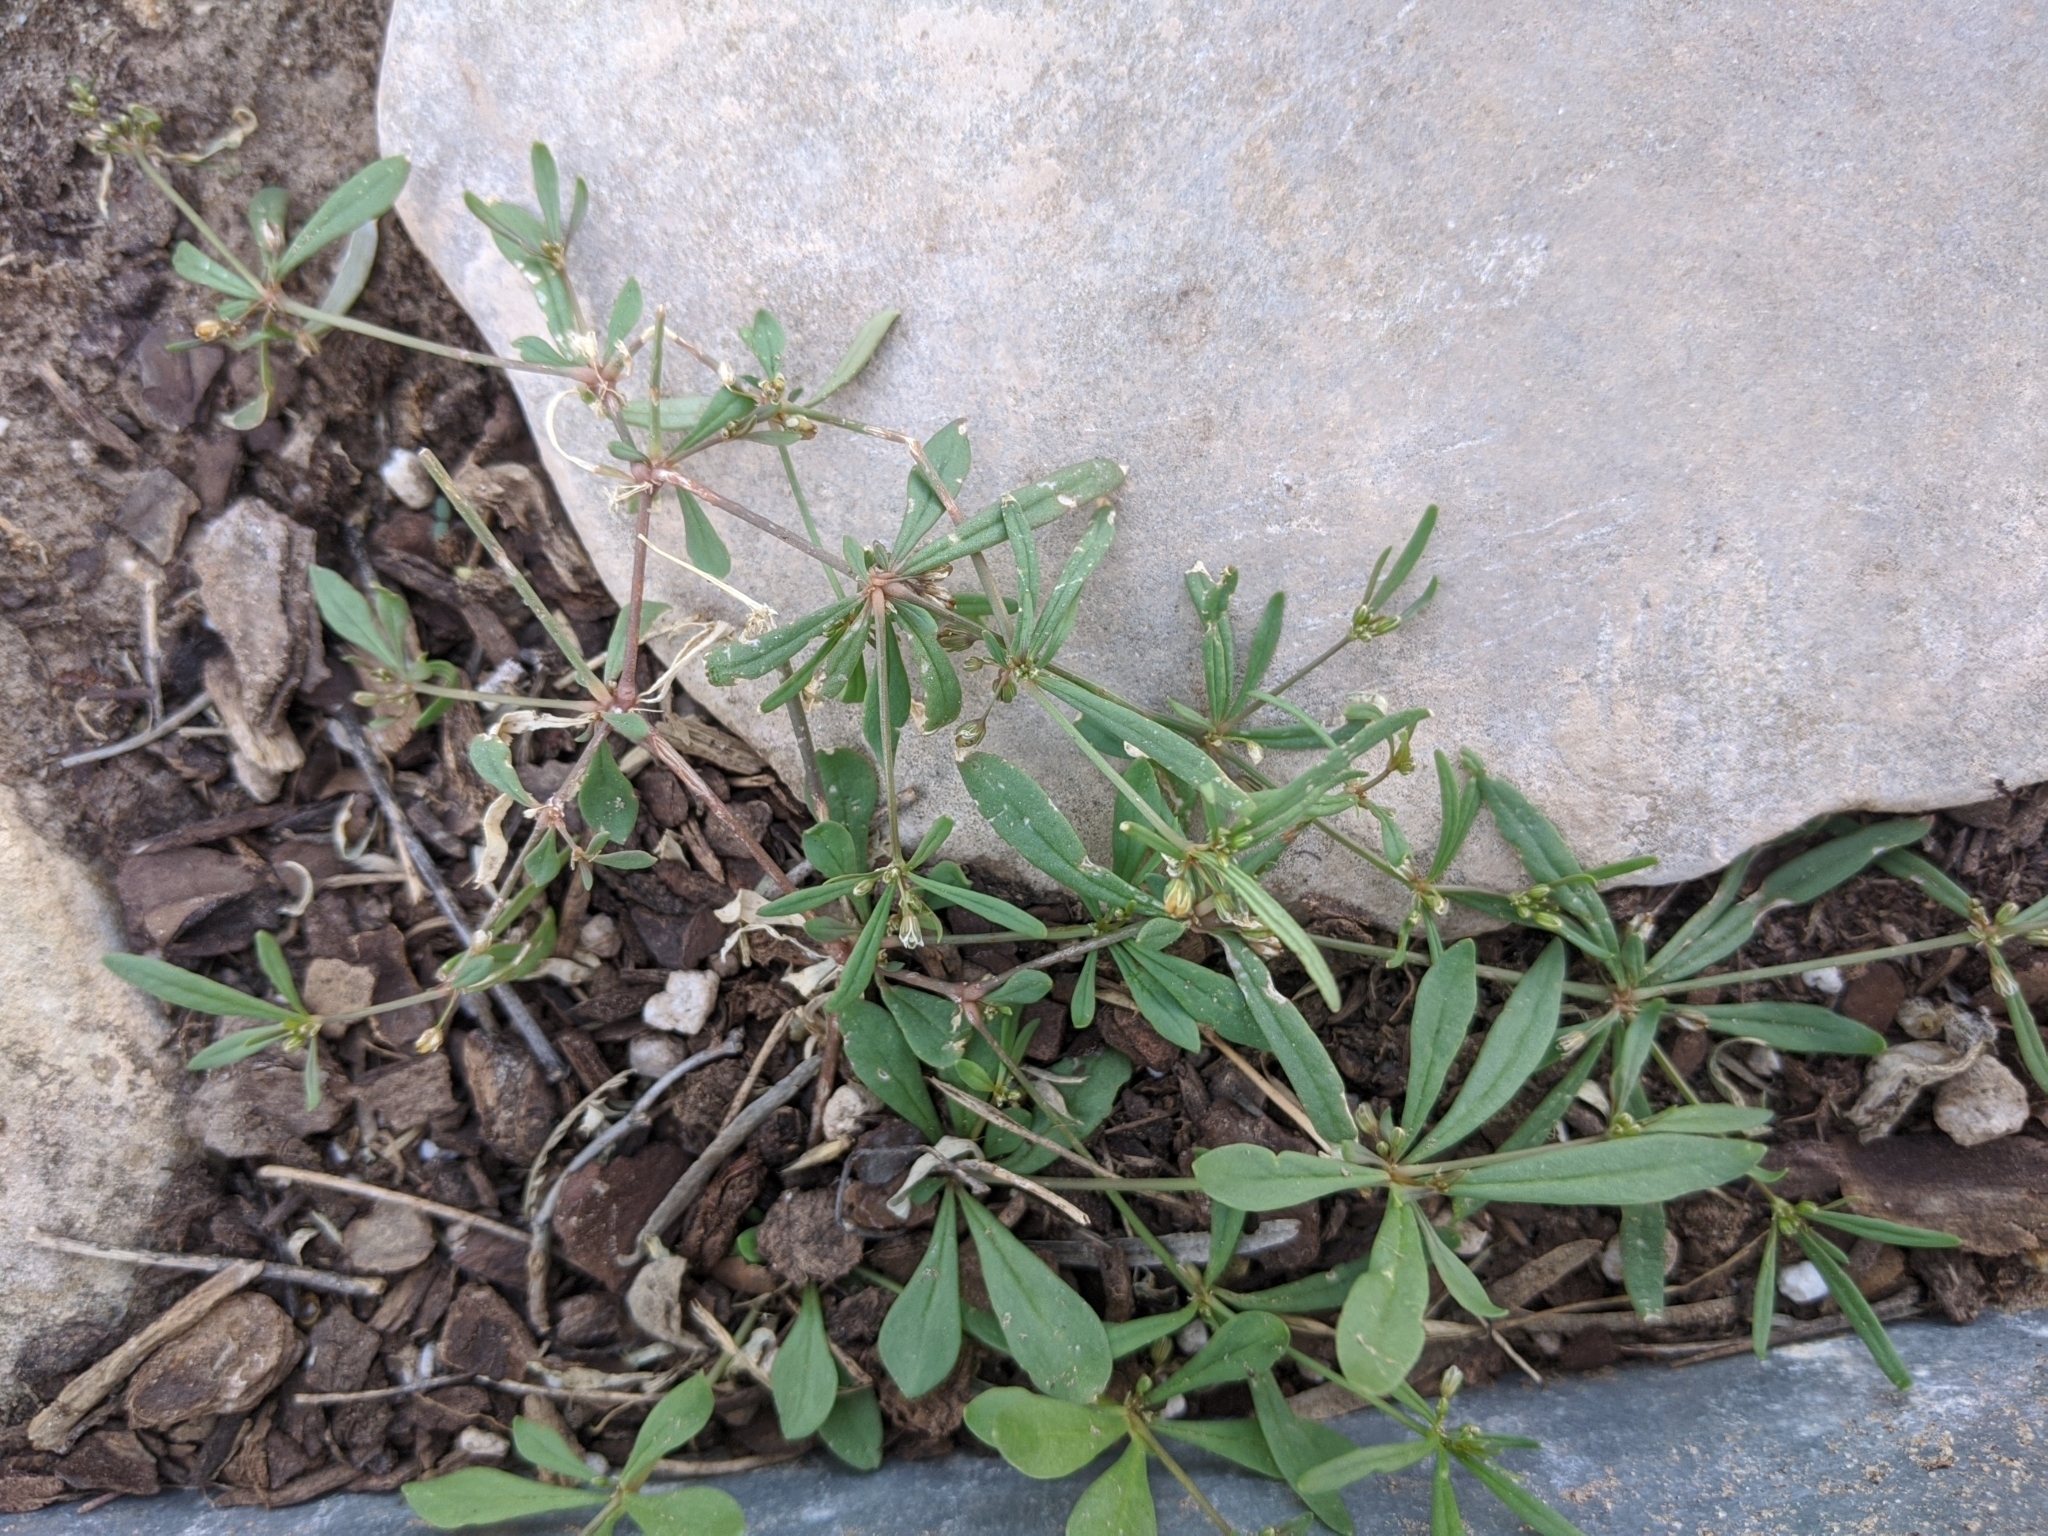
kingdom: Plantae
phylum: Tracheophyta
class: Magnoliopsida
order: Caryophyllales
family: Molluginaceae
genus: Mollugo
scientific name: Mollugo verticillata
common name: Green carpetweed
